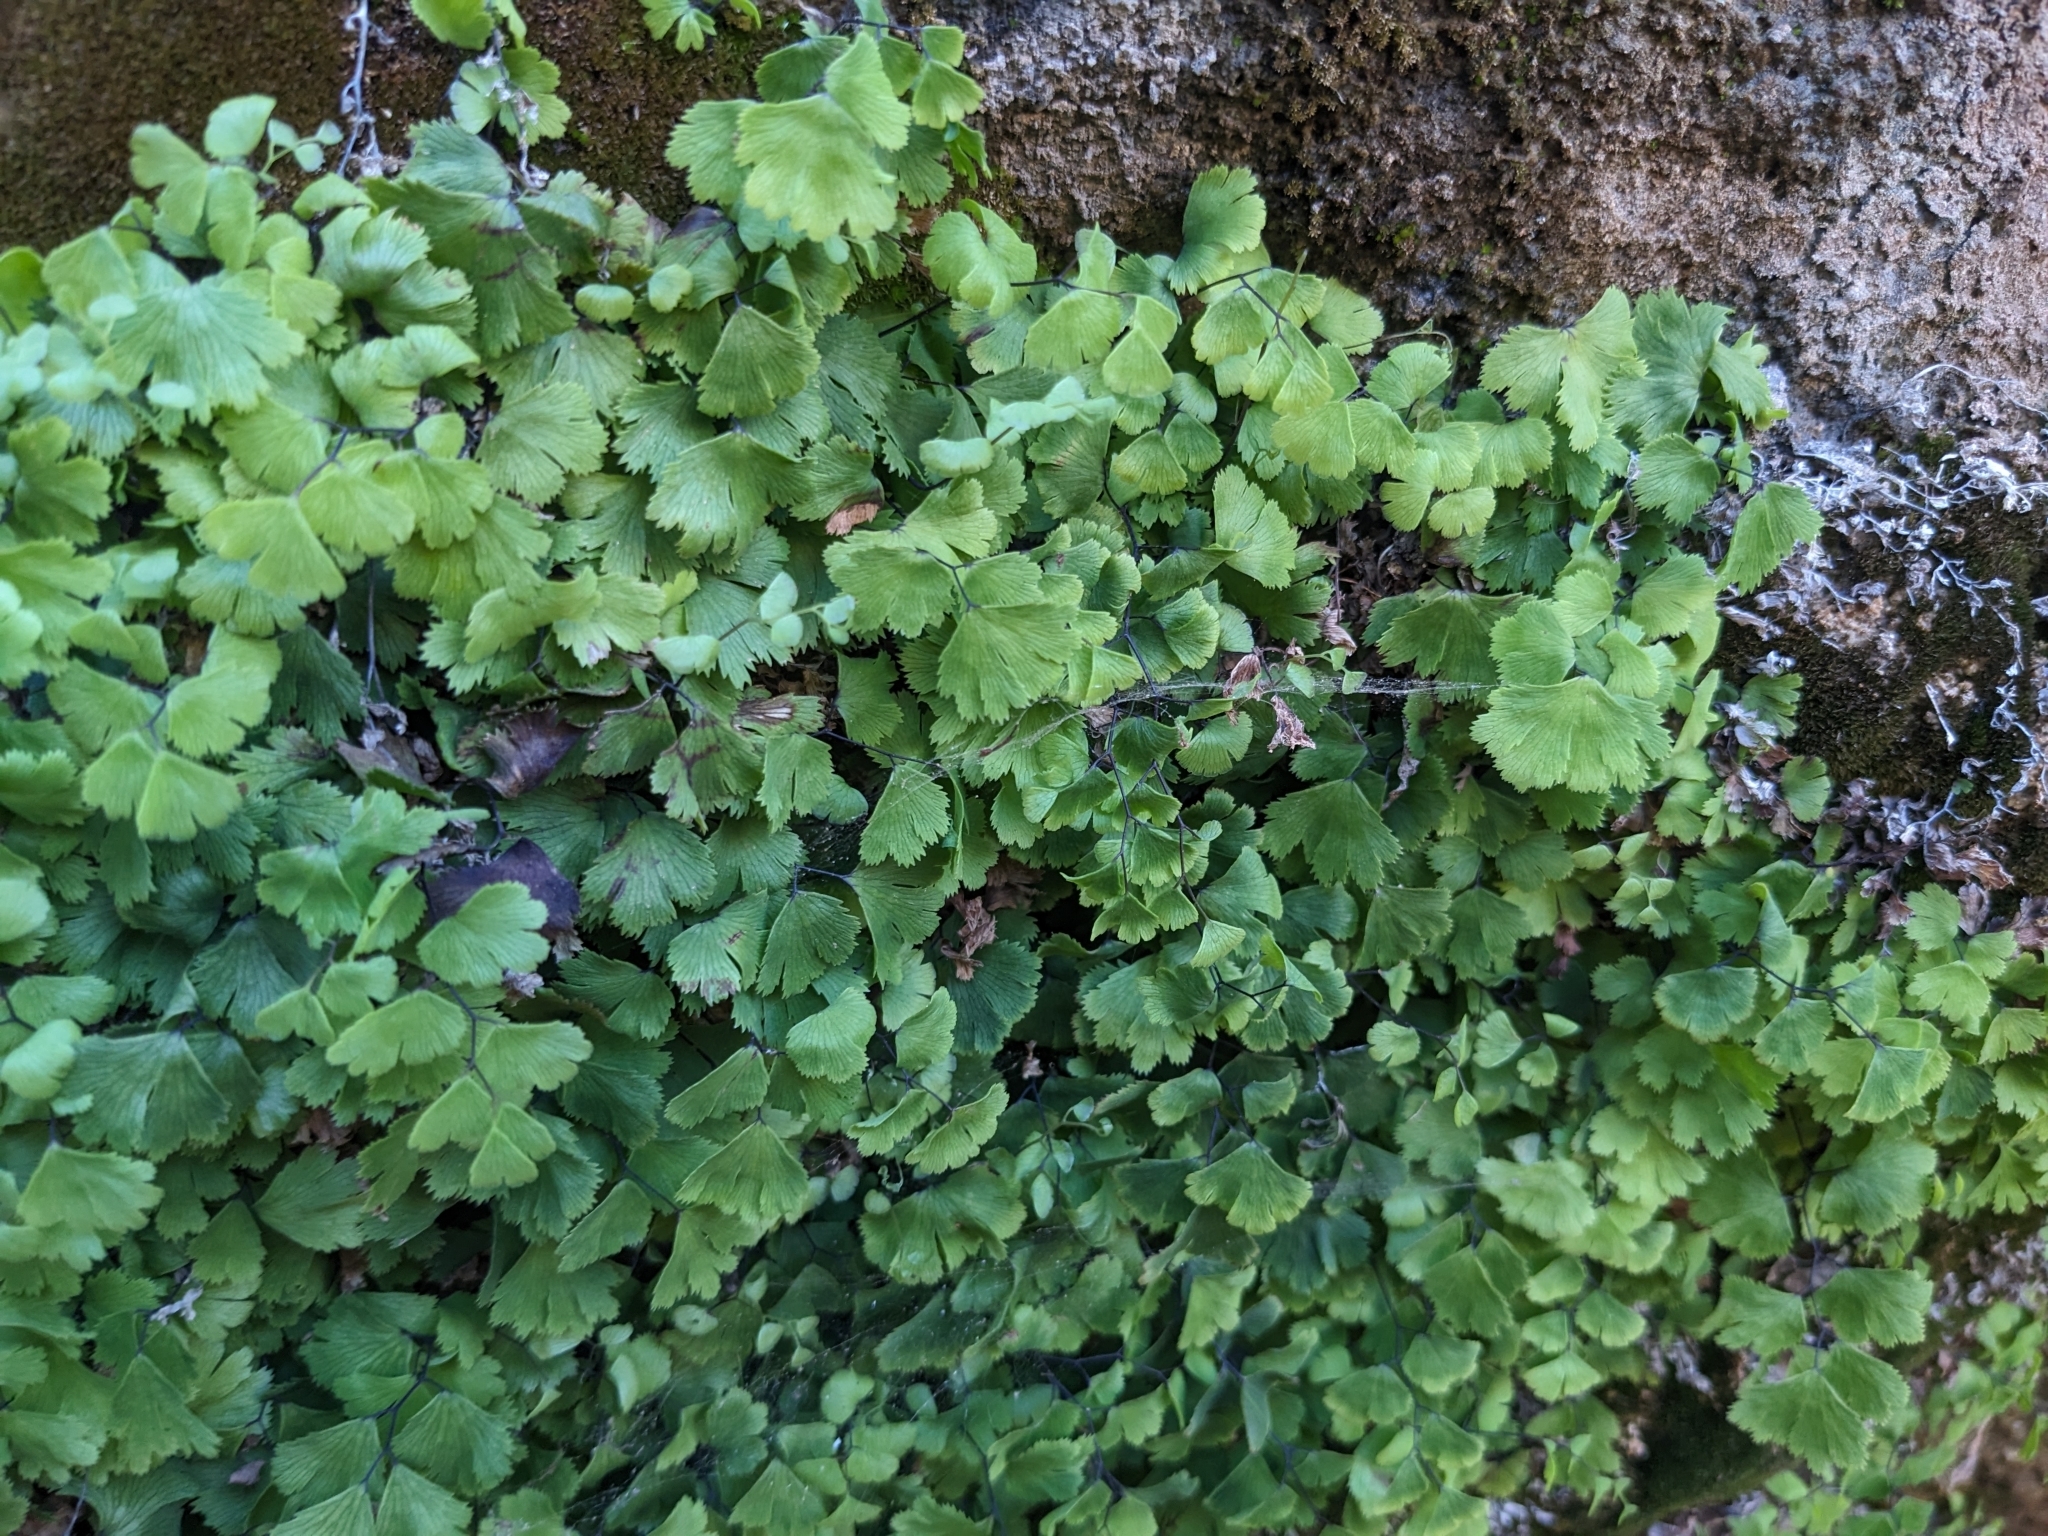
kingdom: Plantae
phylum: Tracheophyta
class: Polypodiopsida
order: Polypodiales
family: Pteridaceae
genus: Adiantum
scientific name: Adiantum capillus-veneris
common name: Maidenhair fern
